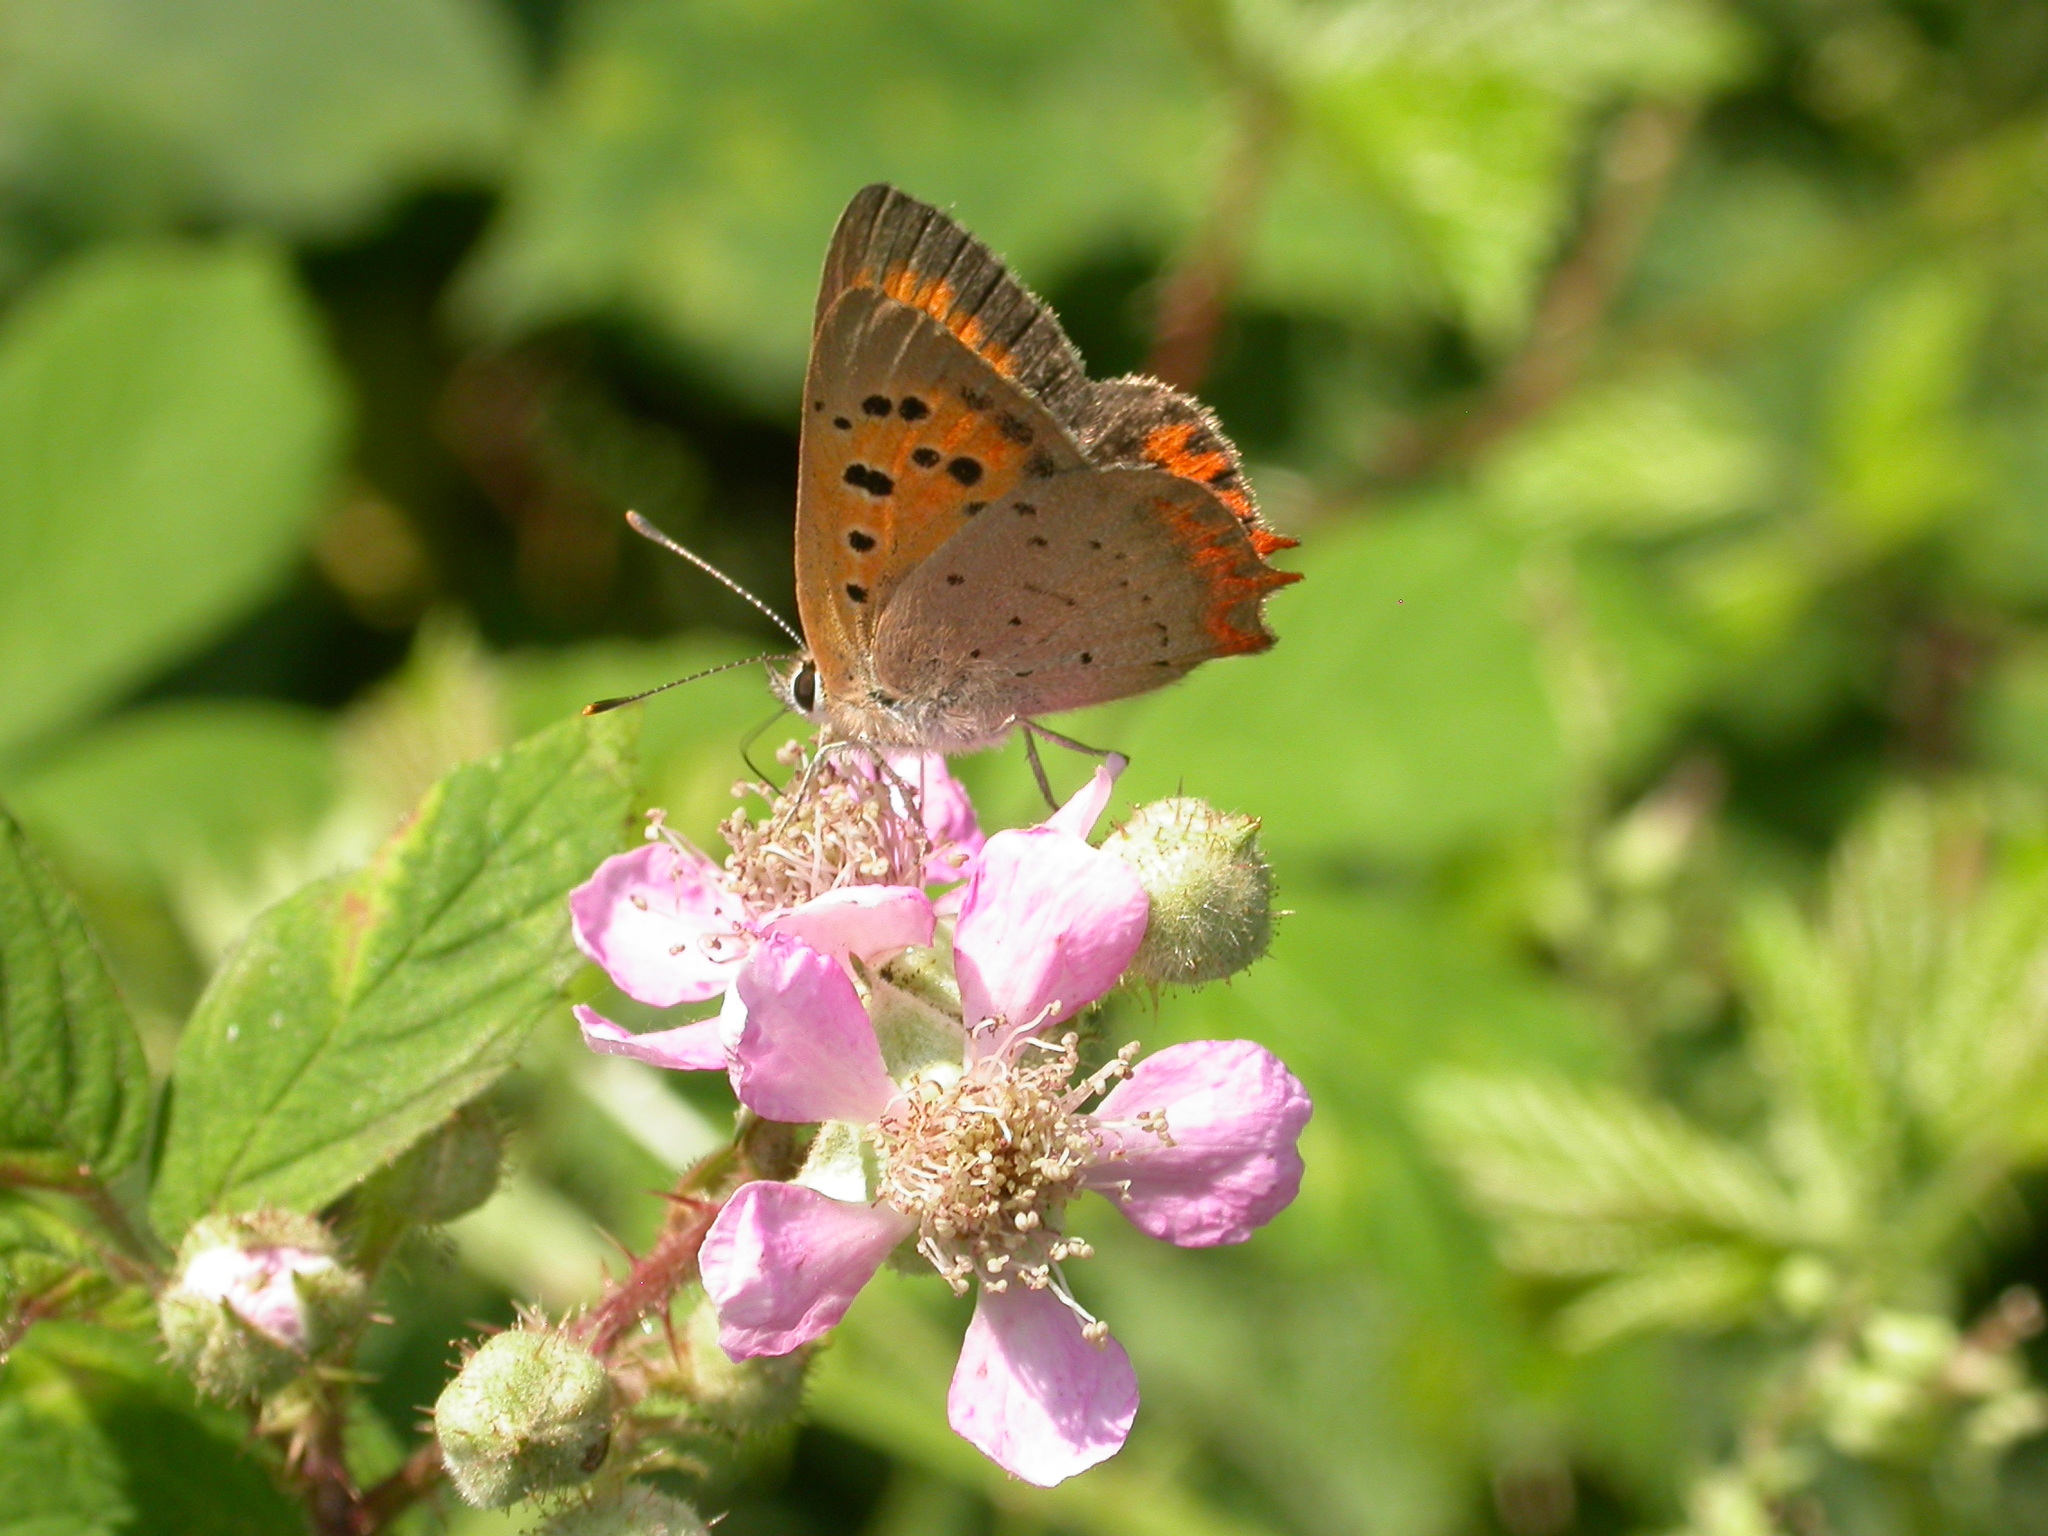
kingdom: Animalia
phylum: Arthropoda
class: Insecta
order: Lepidoptera
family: Lycaenidae
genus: Lycaena
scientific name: Lycaena phlaeas
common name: Small copper
